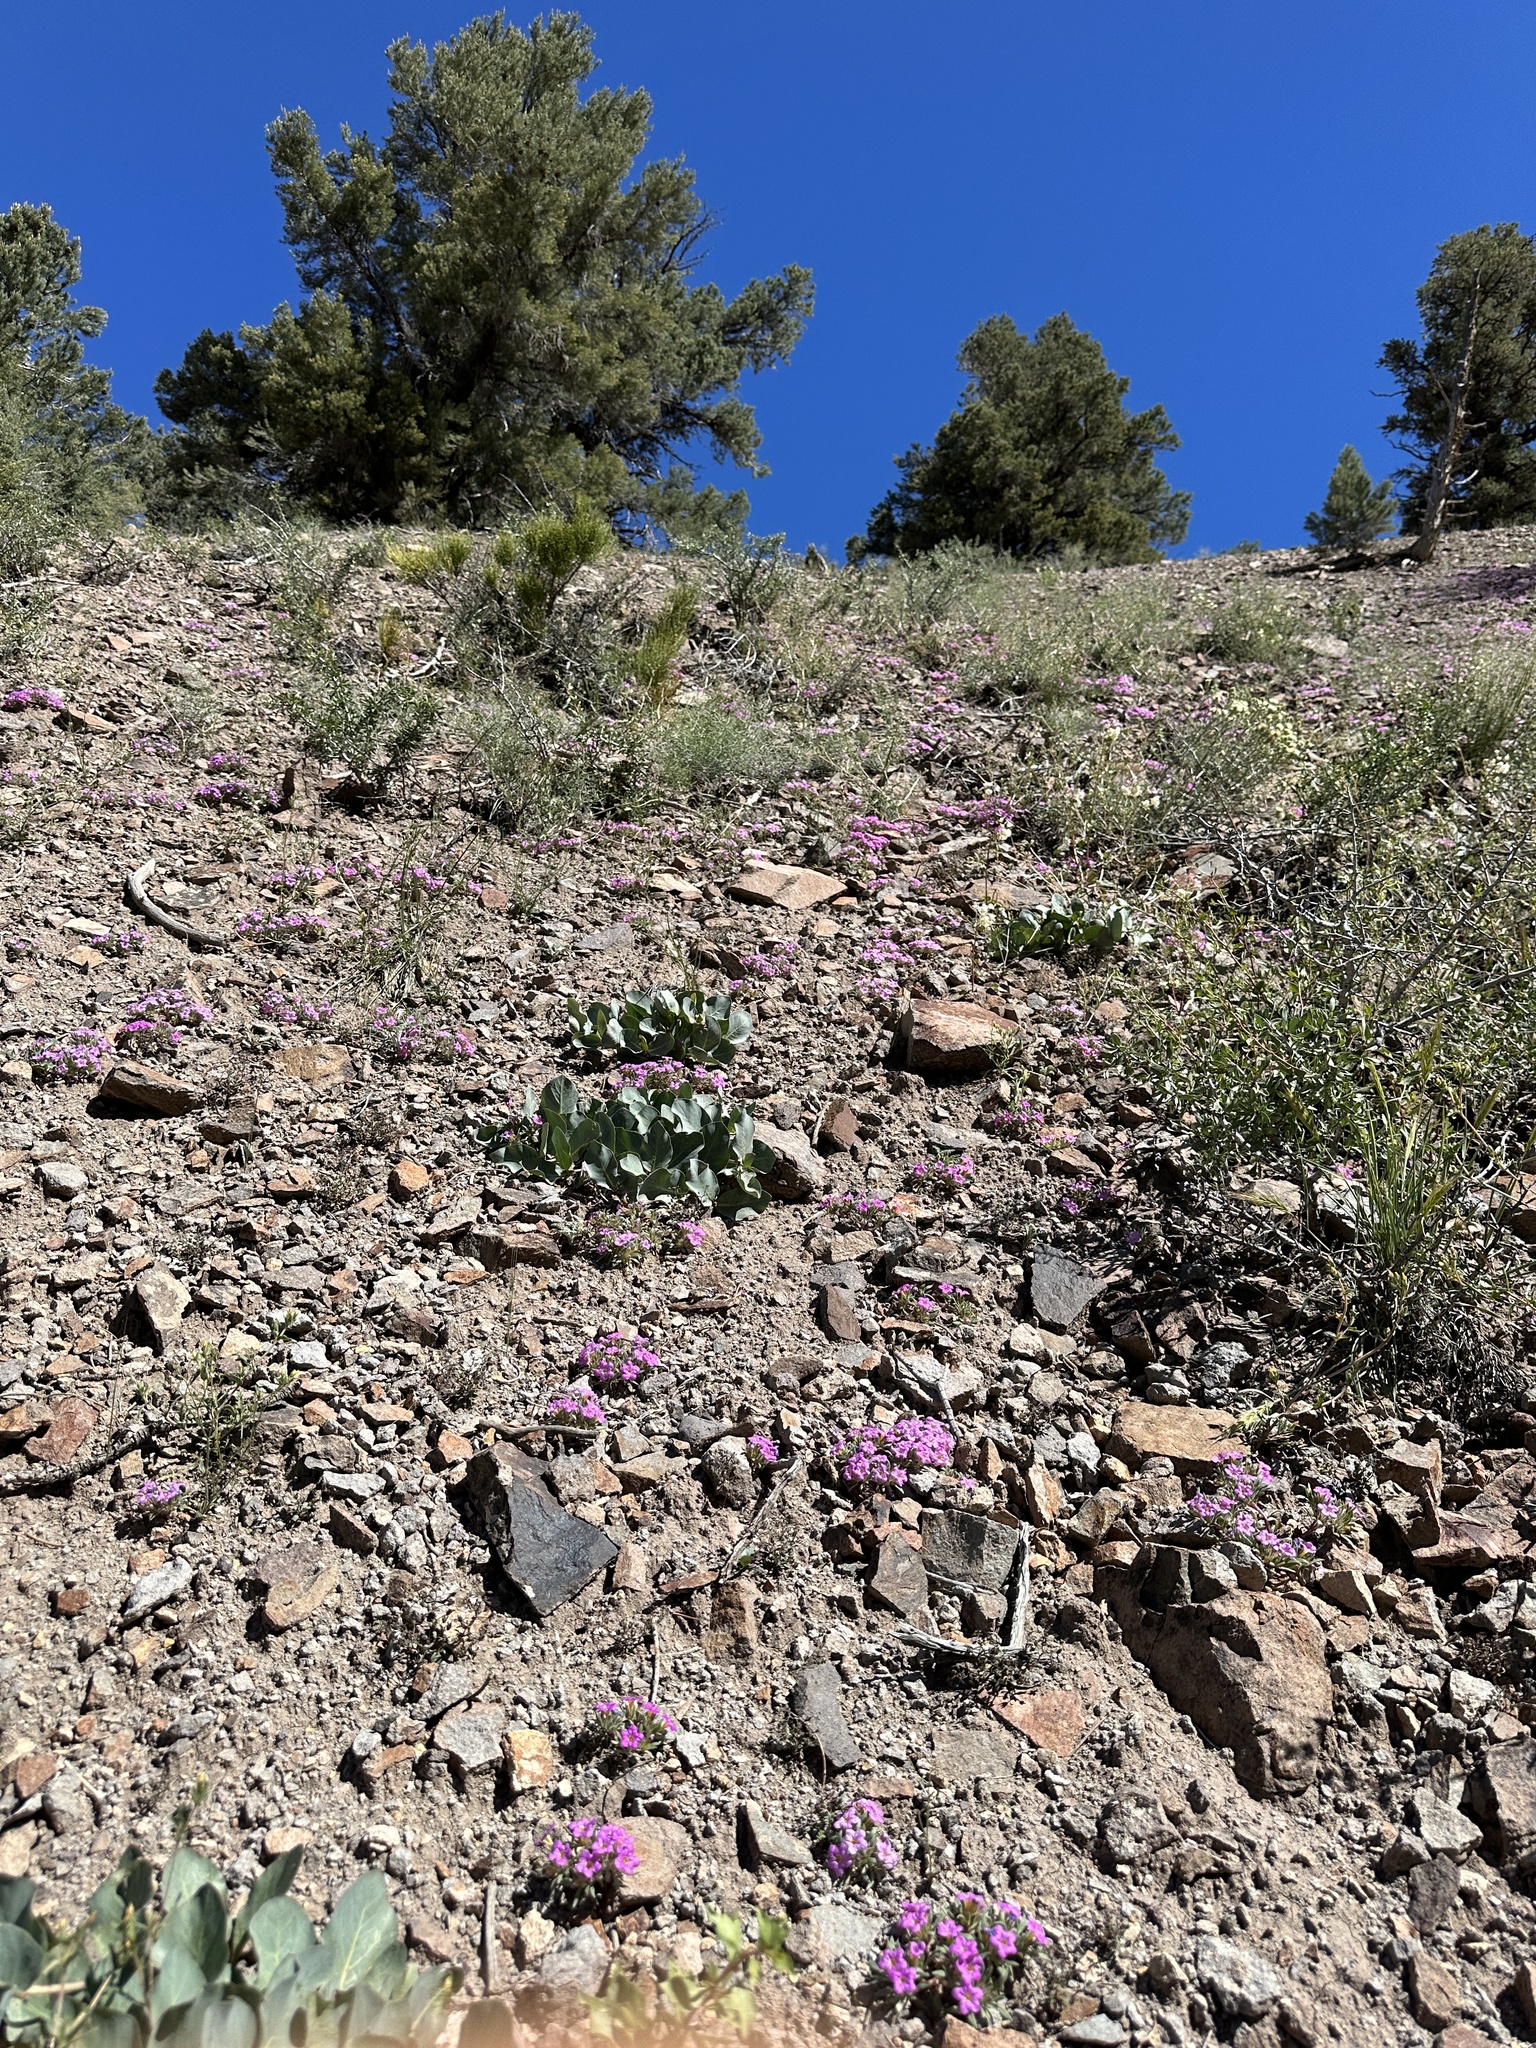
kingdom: Plantae
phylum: Tracheophyta
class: Magnoliopsida
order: Boraginales
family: Namaceae
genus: Nama
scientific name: Nama aretioides
